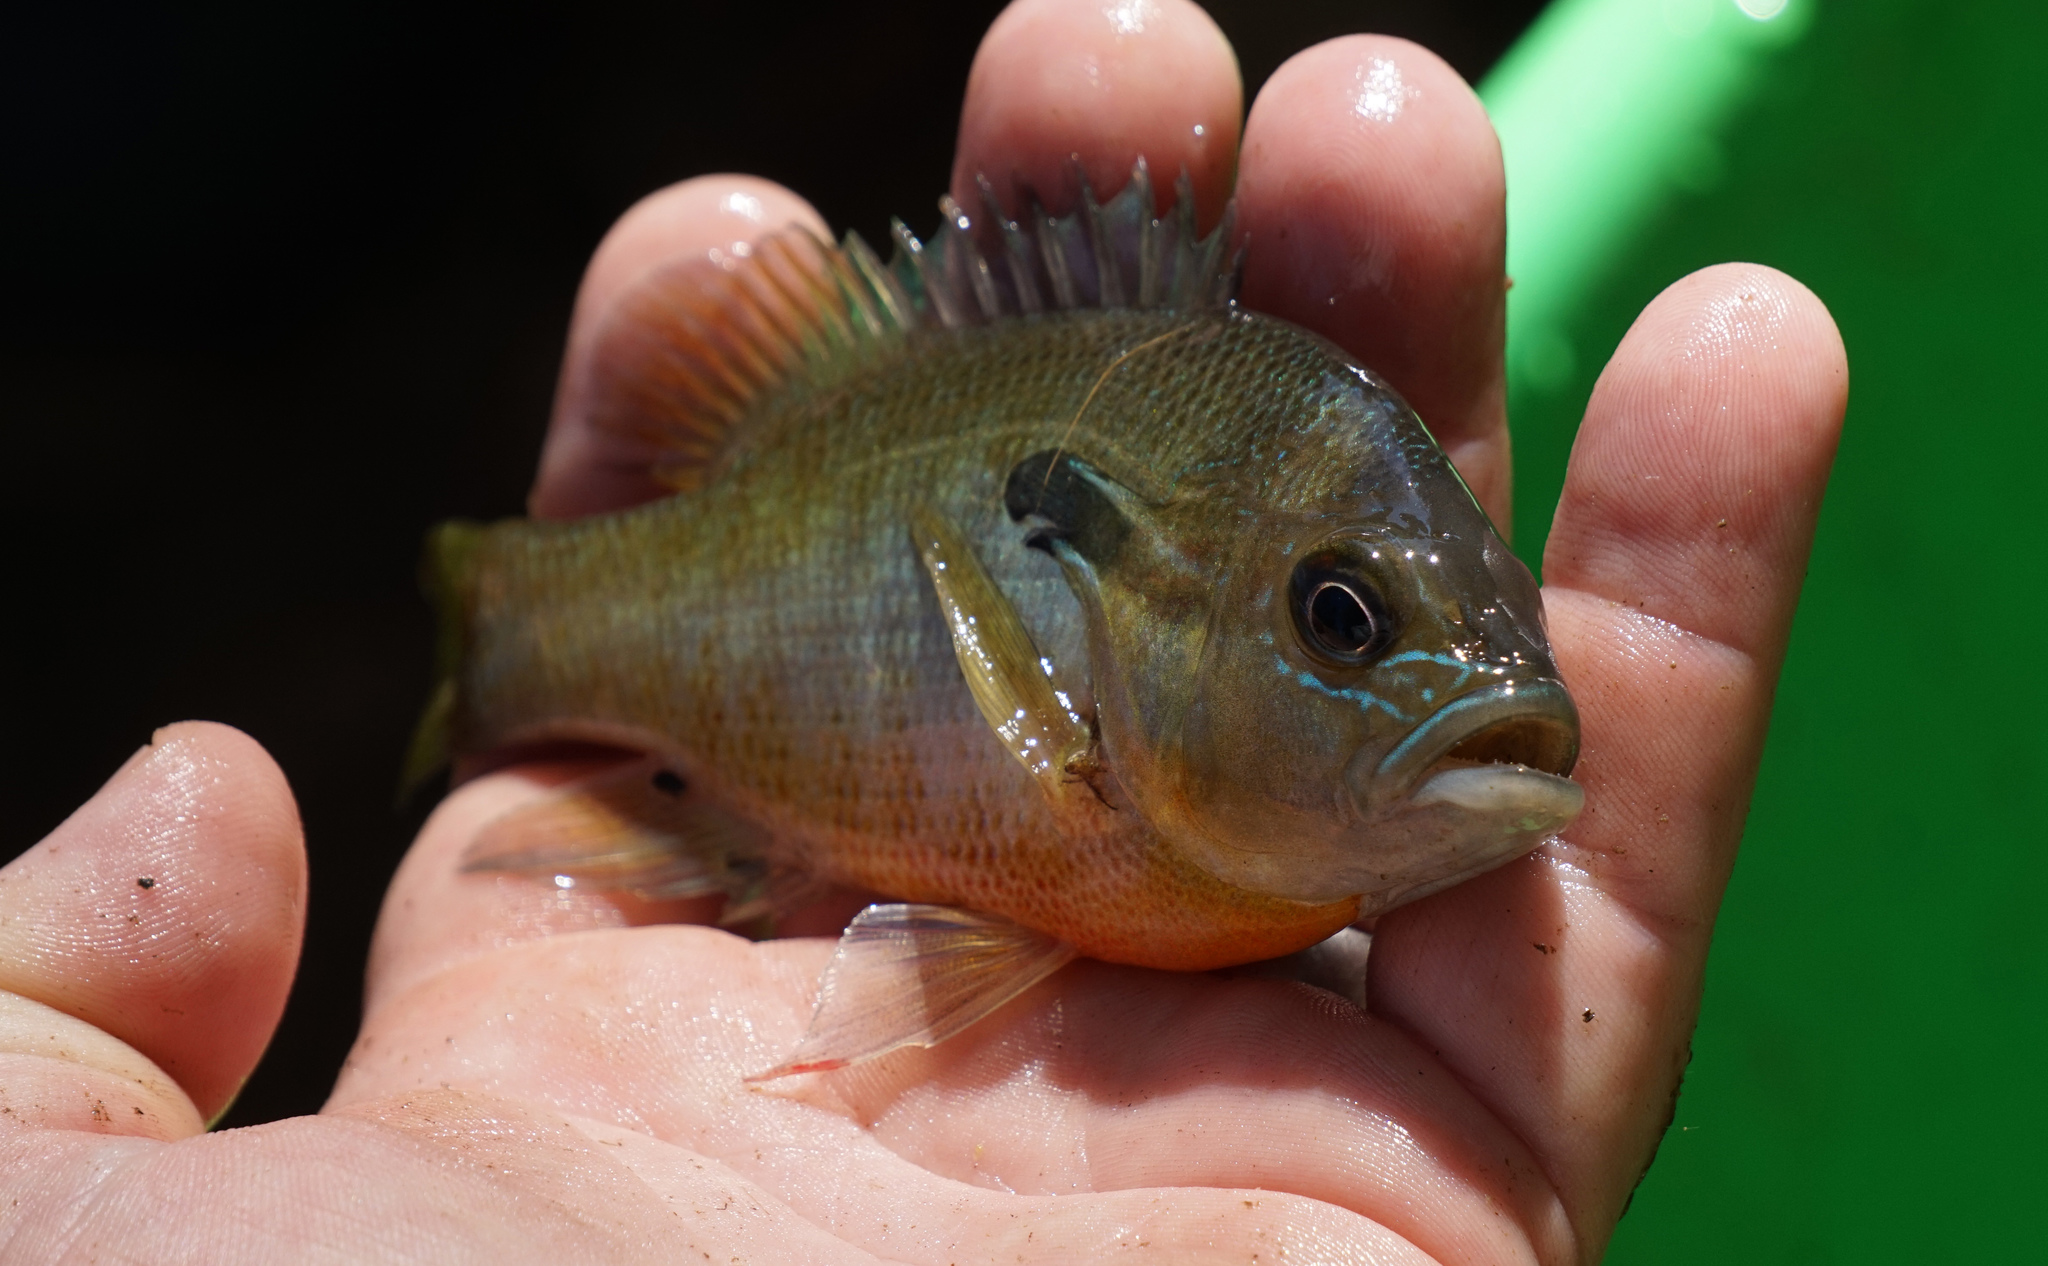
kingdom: Animalia
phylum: Chordata
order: Perciformes
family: Centrarchidae
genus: Lepomis
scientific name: Lepomis auritus
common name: Redbreast sunfish
